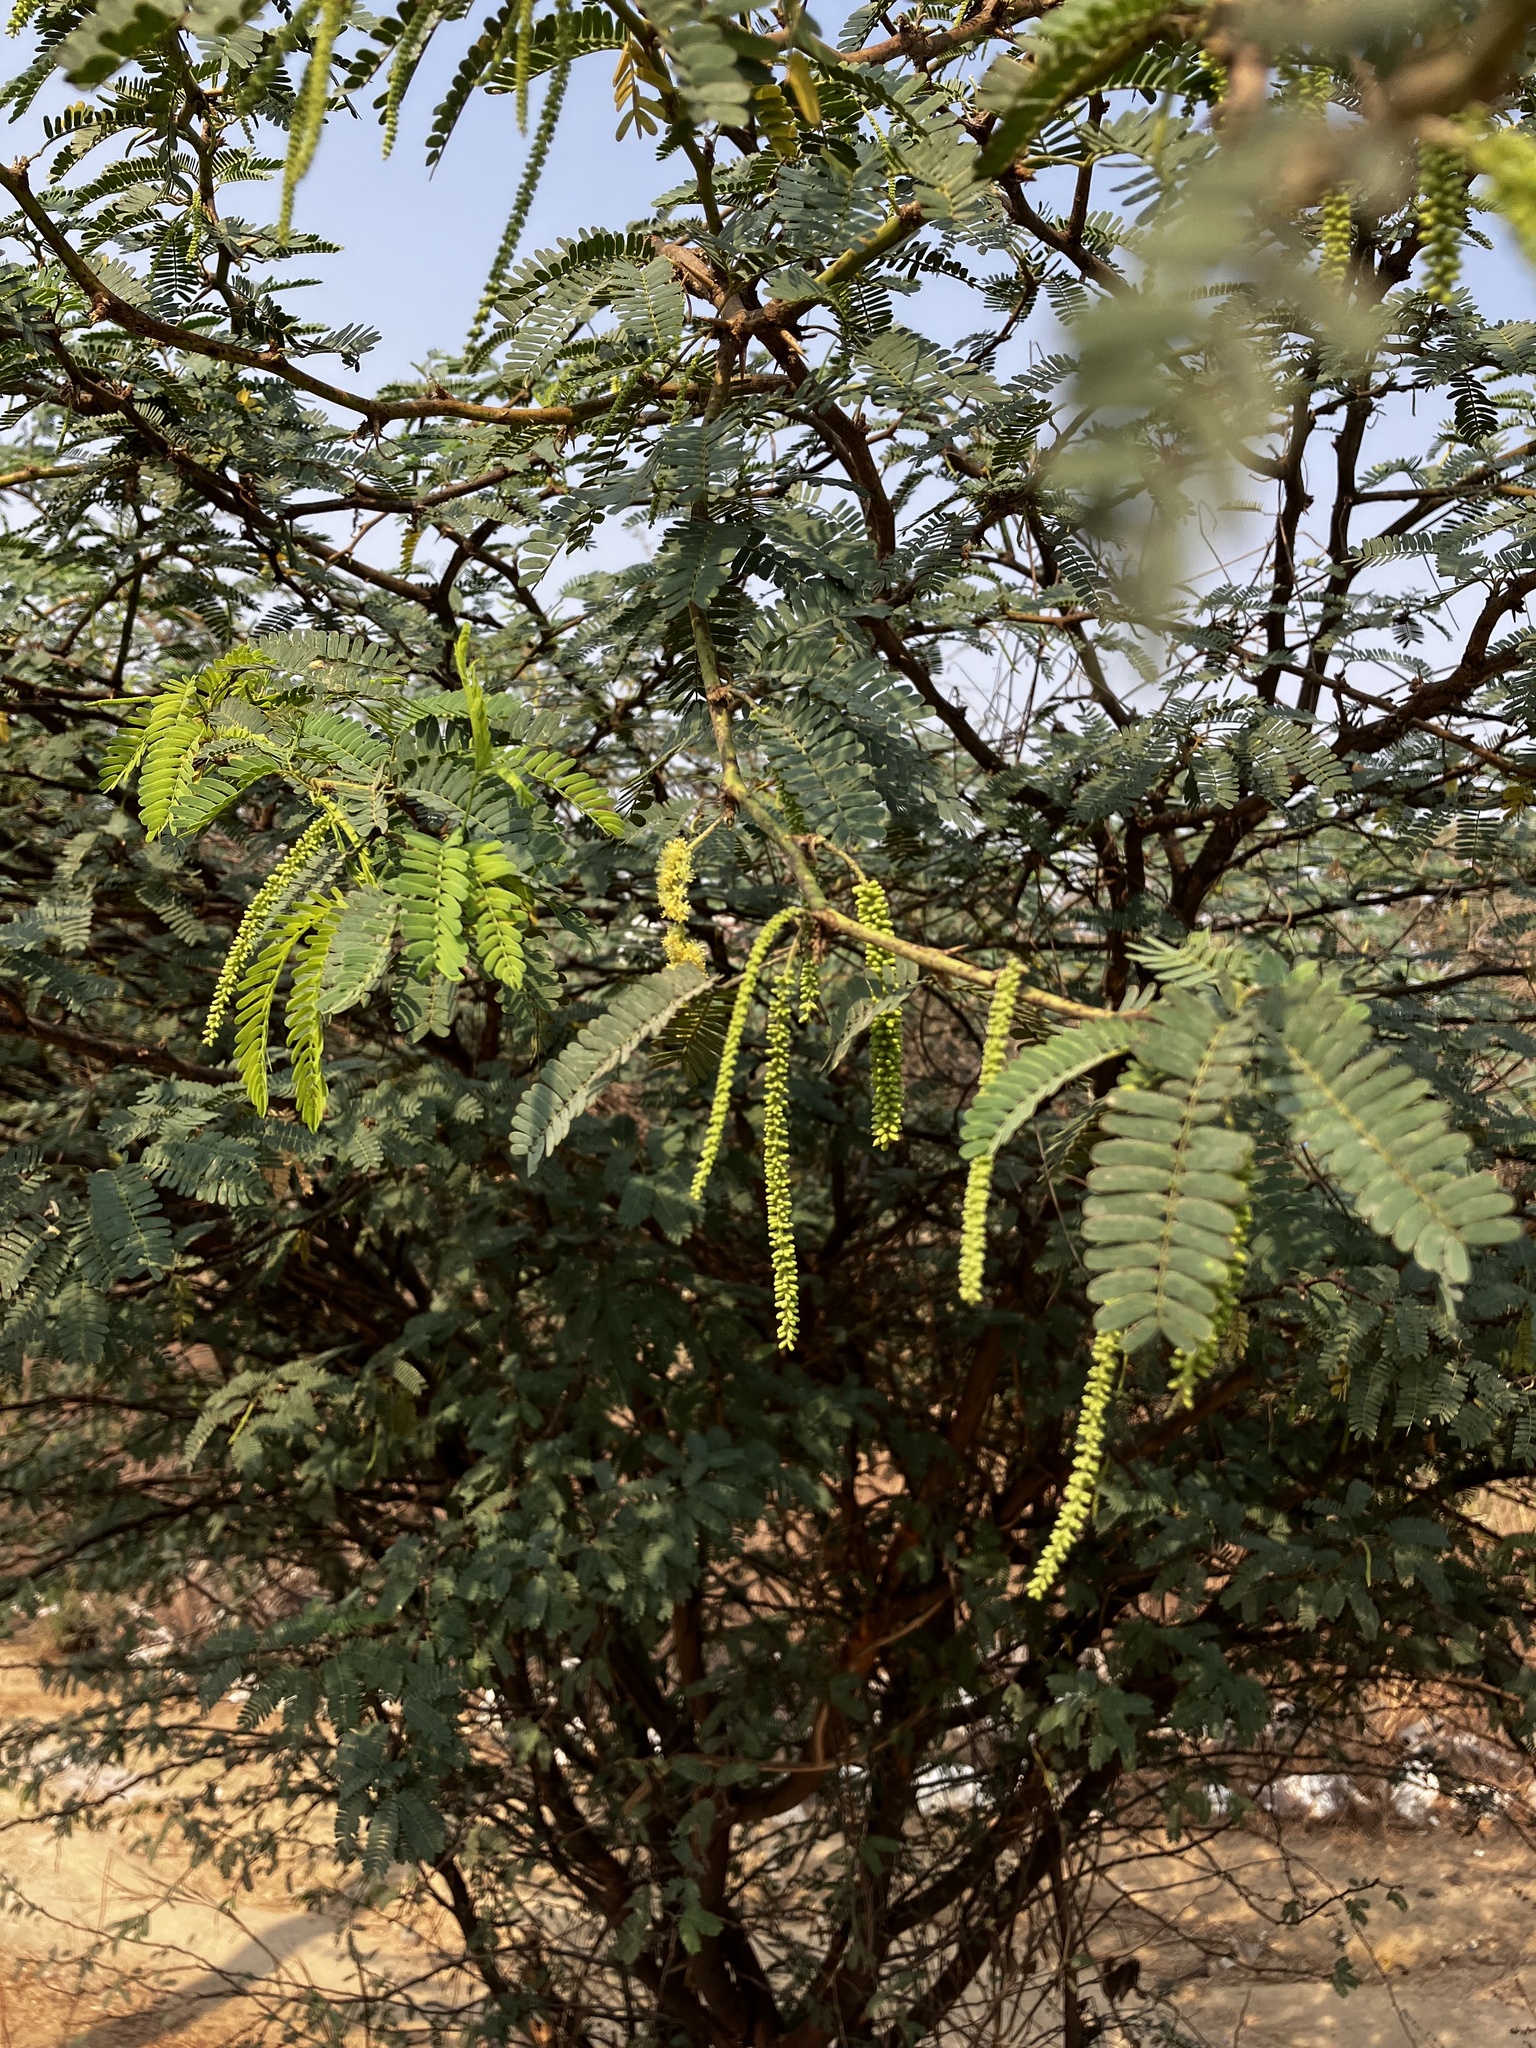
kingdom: Plantae
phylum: Tracheophyta
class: Magnoliopsida
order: Fabales
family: Fabaceae
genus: Prosopis
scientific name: Prosopis juliflora
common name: Mesquite
